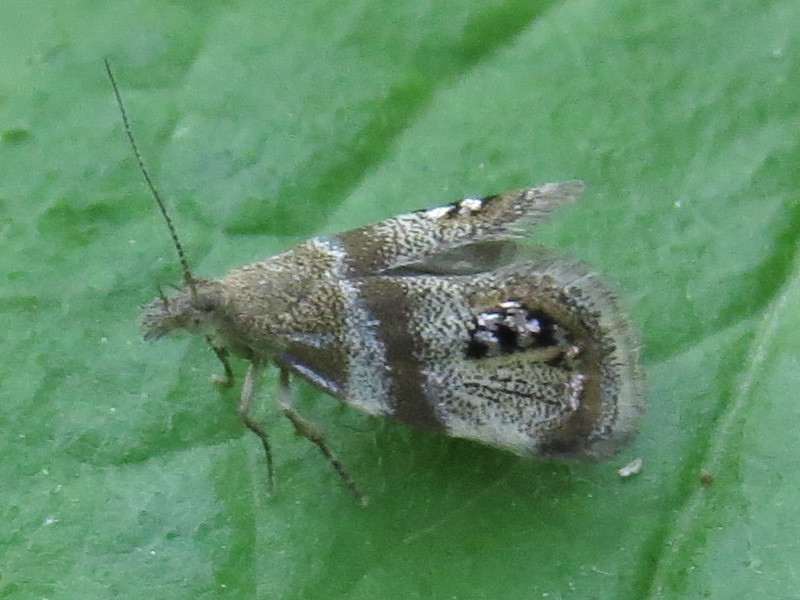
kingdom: Animalia
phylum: Arthropoda
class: Insecta
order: Lepidoptera
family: Choreutidae
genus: Pseudcaloreas
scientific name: Pseudcaloreas extrincicella
